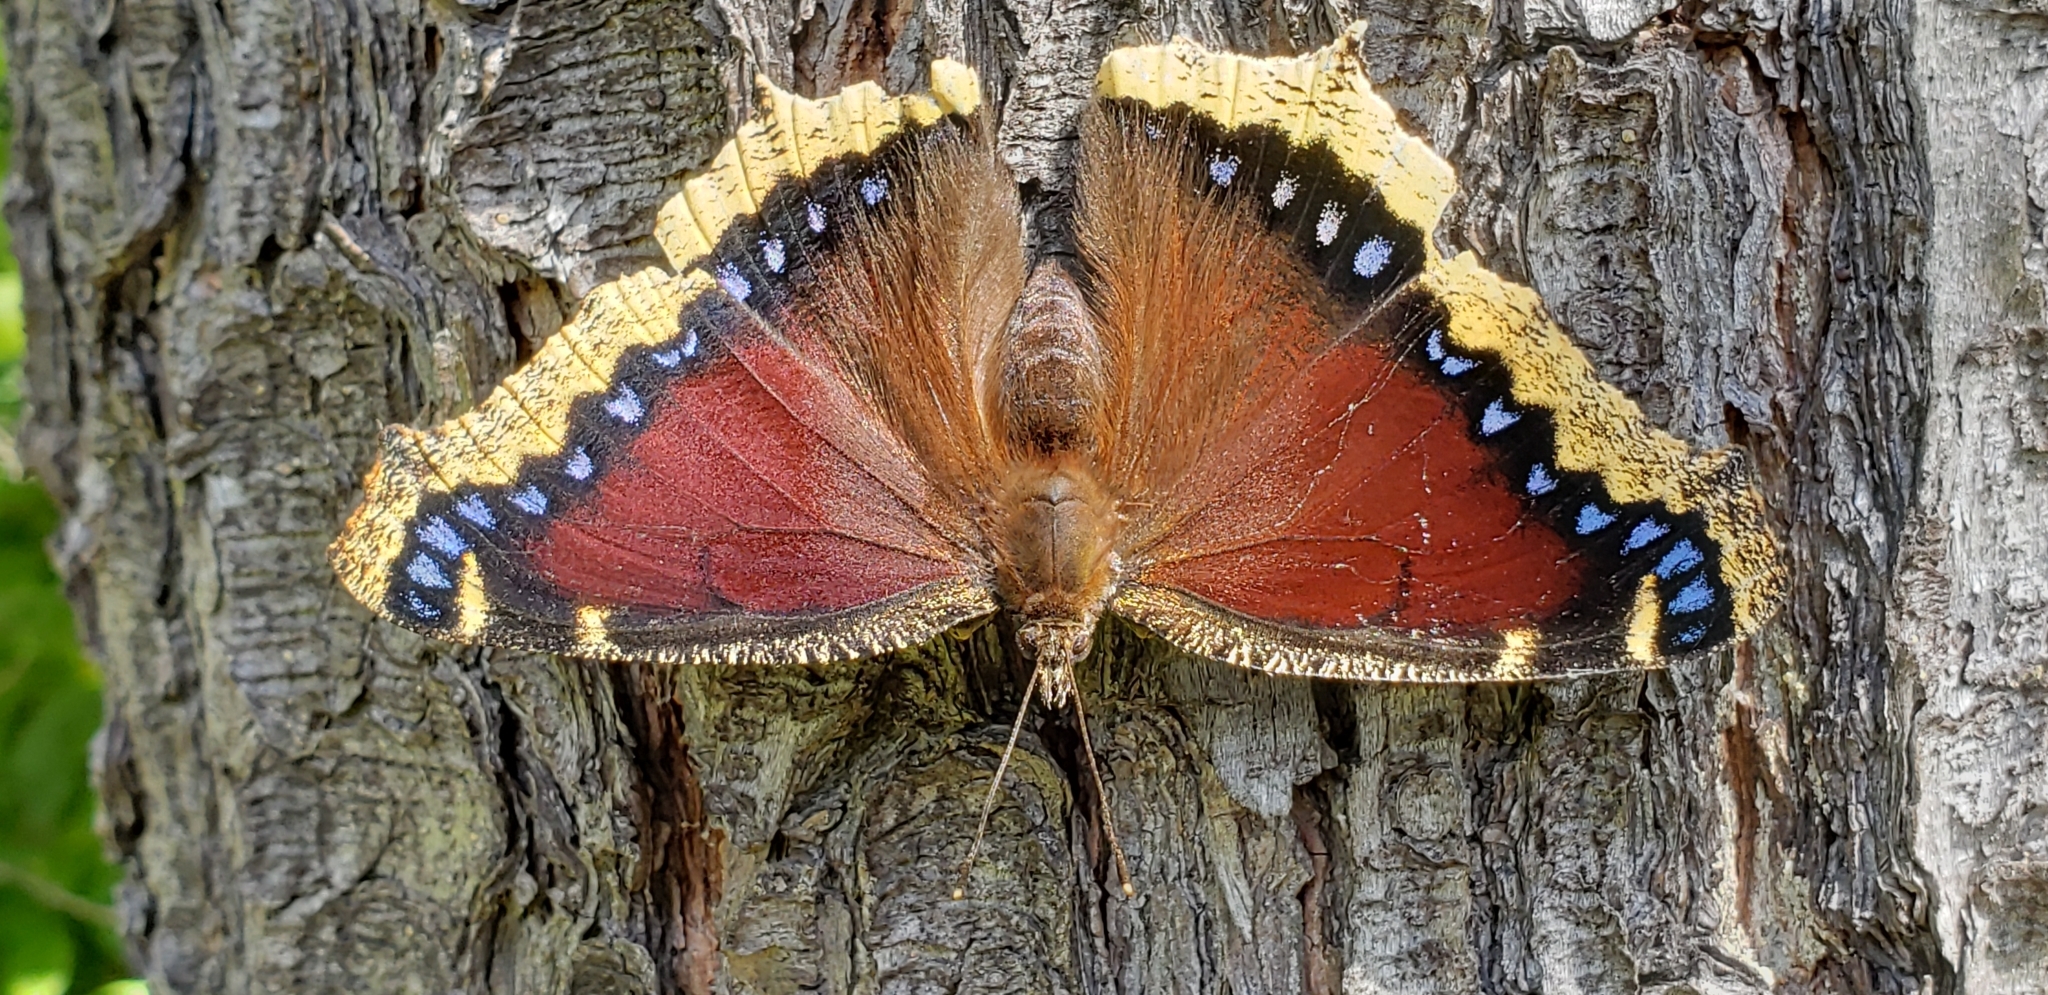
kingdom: Animalia
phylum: Arthropoda
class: Insecta
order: Lepidoptera
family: Nymphalidae
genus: Nymphalis
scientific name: Nymphalis antiopa
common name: Camberwell beauty
